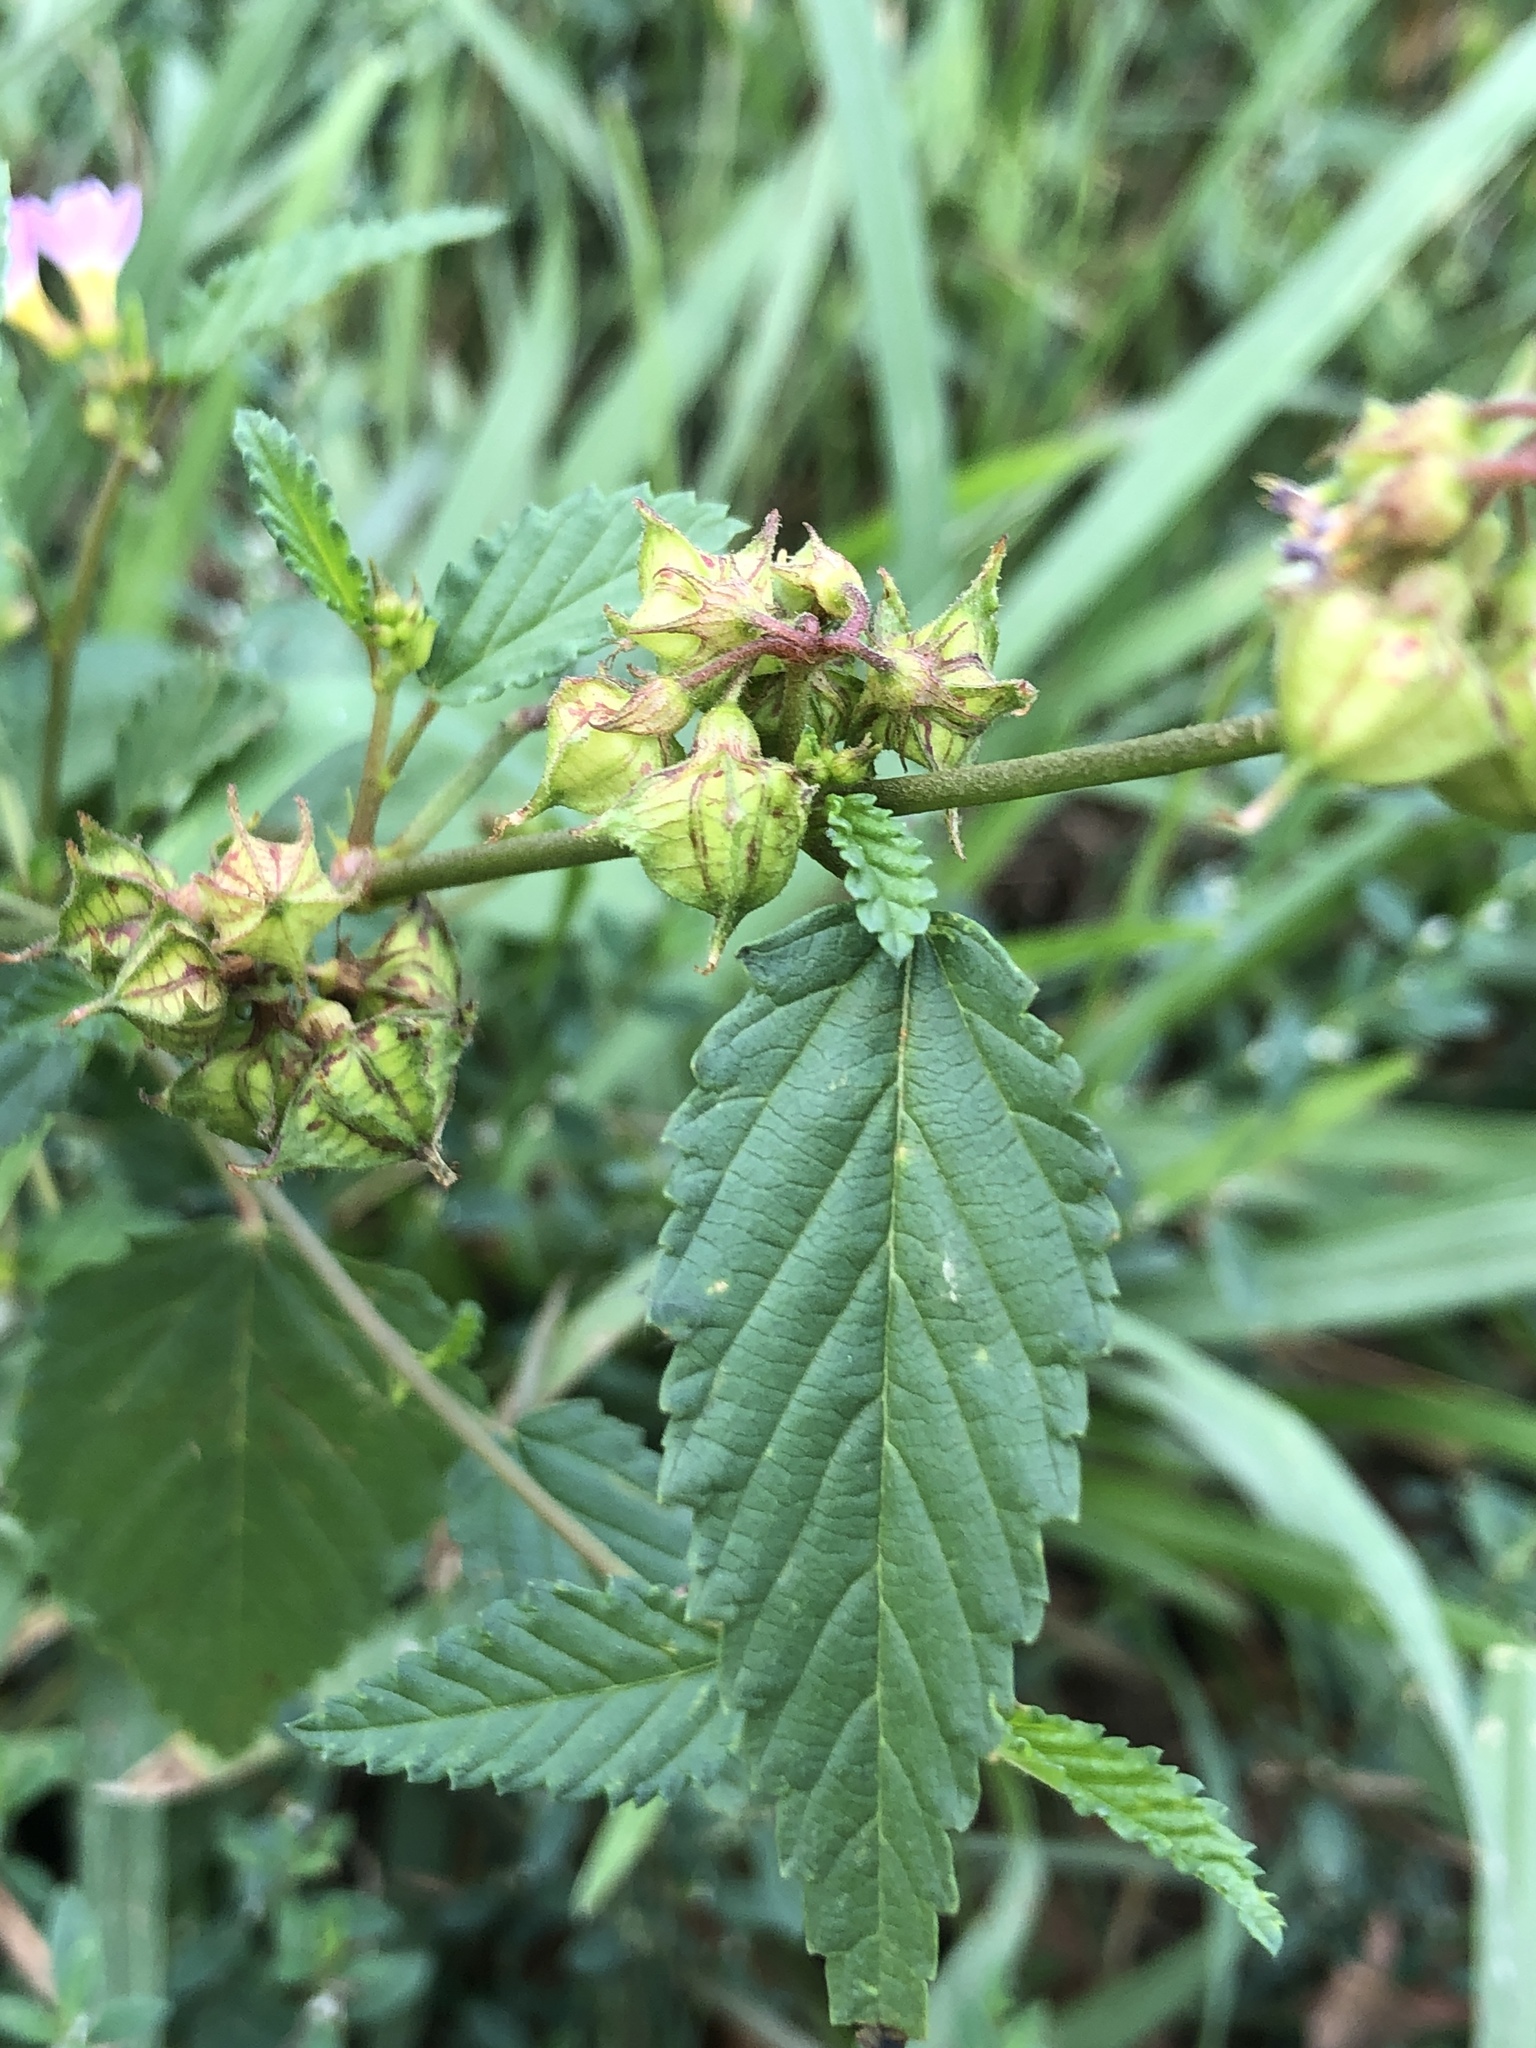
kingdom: Plantae
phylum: Tracheophyta
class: Magnoliopsida
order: Malvales
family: Malvaceae
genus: Melochia
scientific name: Melochia pyramidata
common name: Pyramidflower
